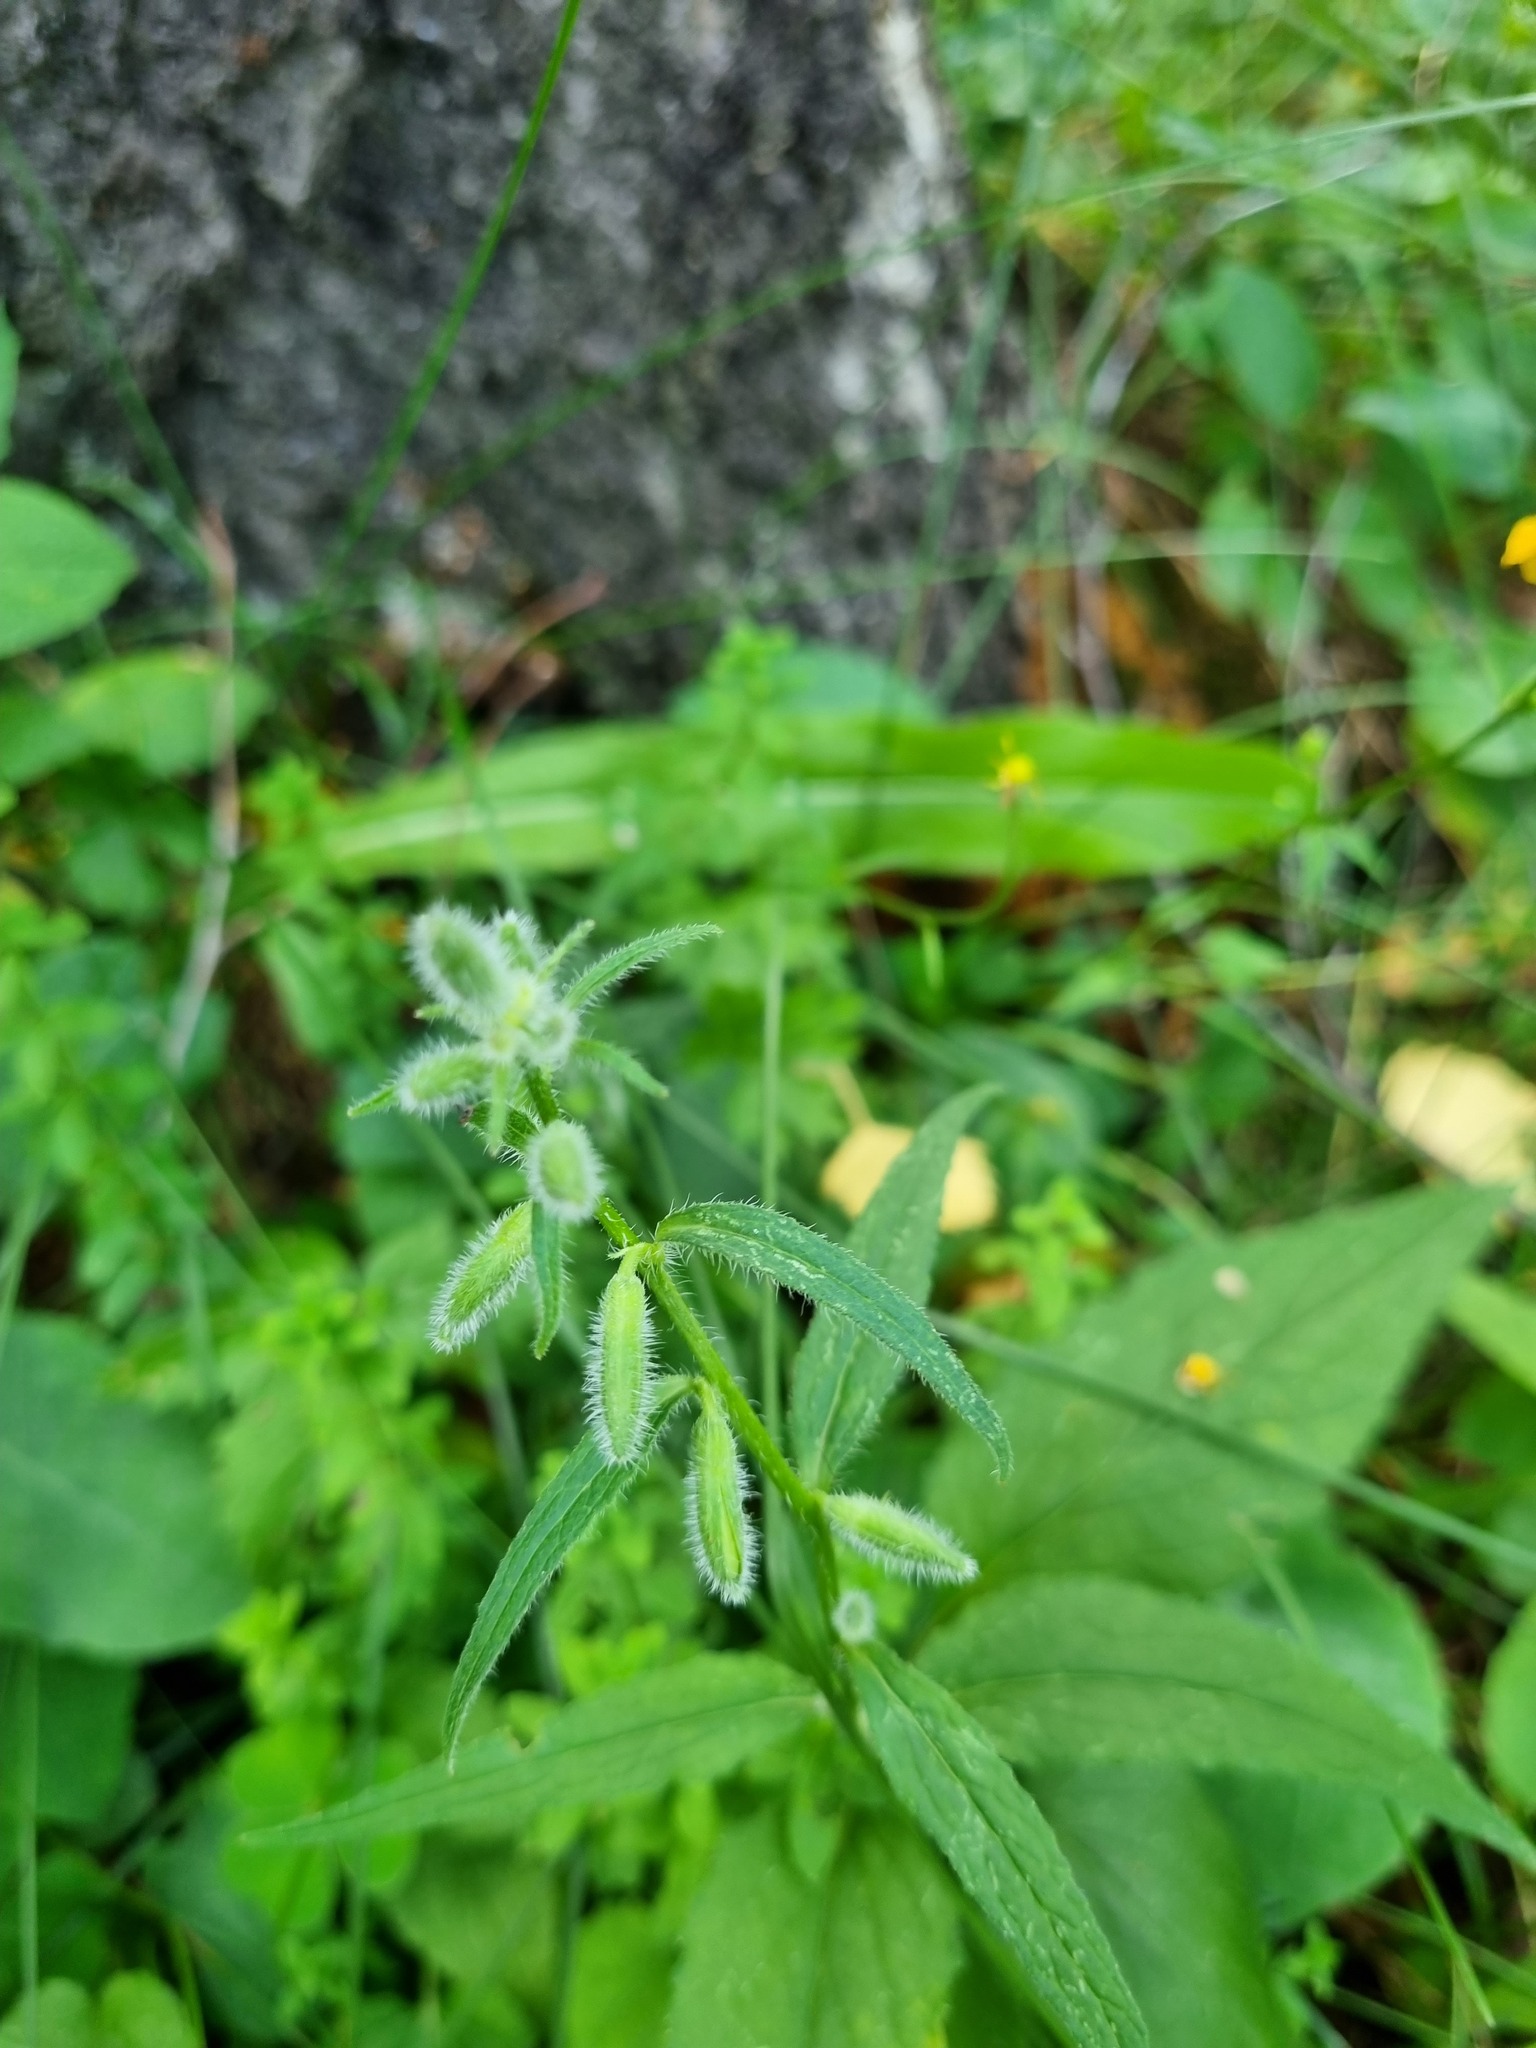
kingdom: Plantae
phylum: Tracheophyta
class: Magnoliopsida
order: Asterales
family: Campanulaceae
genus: Campanula
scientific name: Campanula rapunculoides
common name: Creeping bellflower
